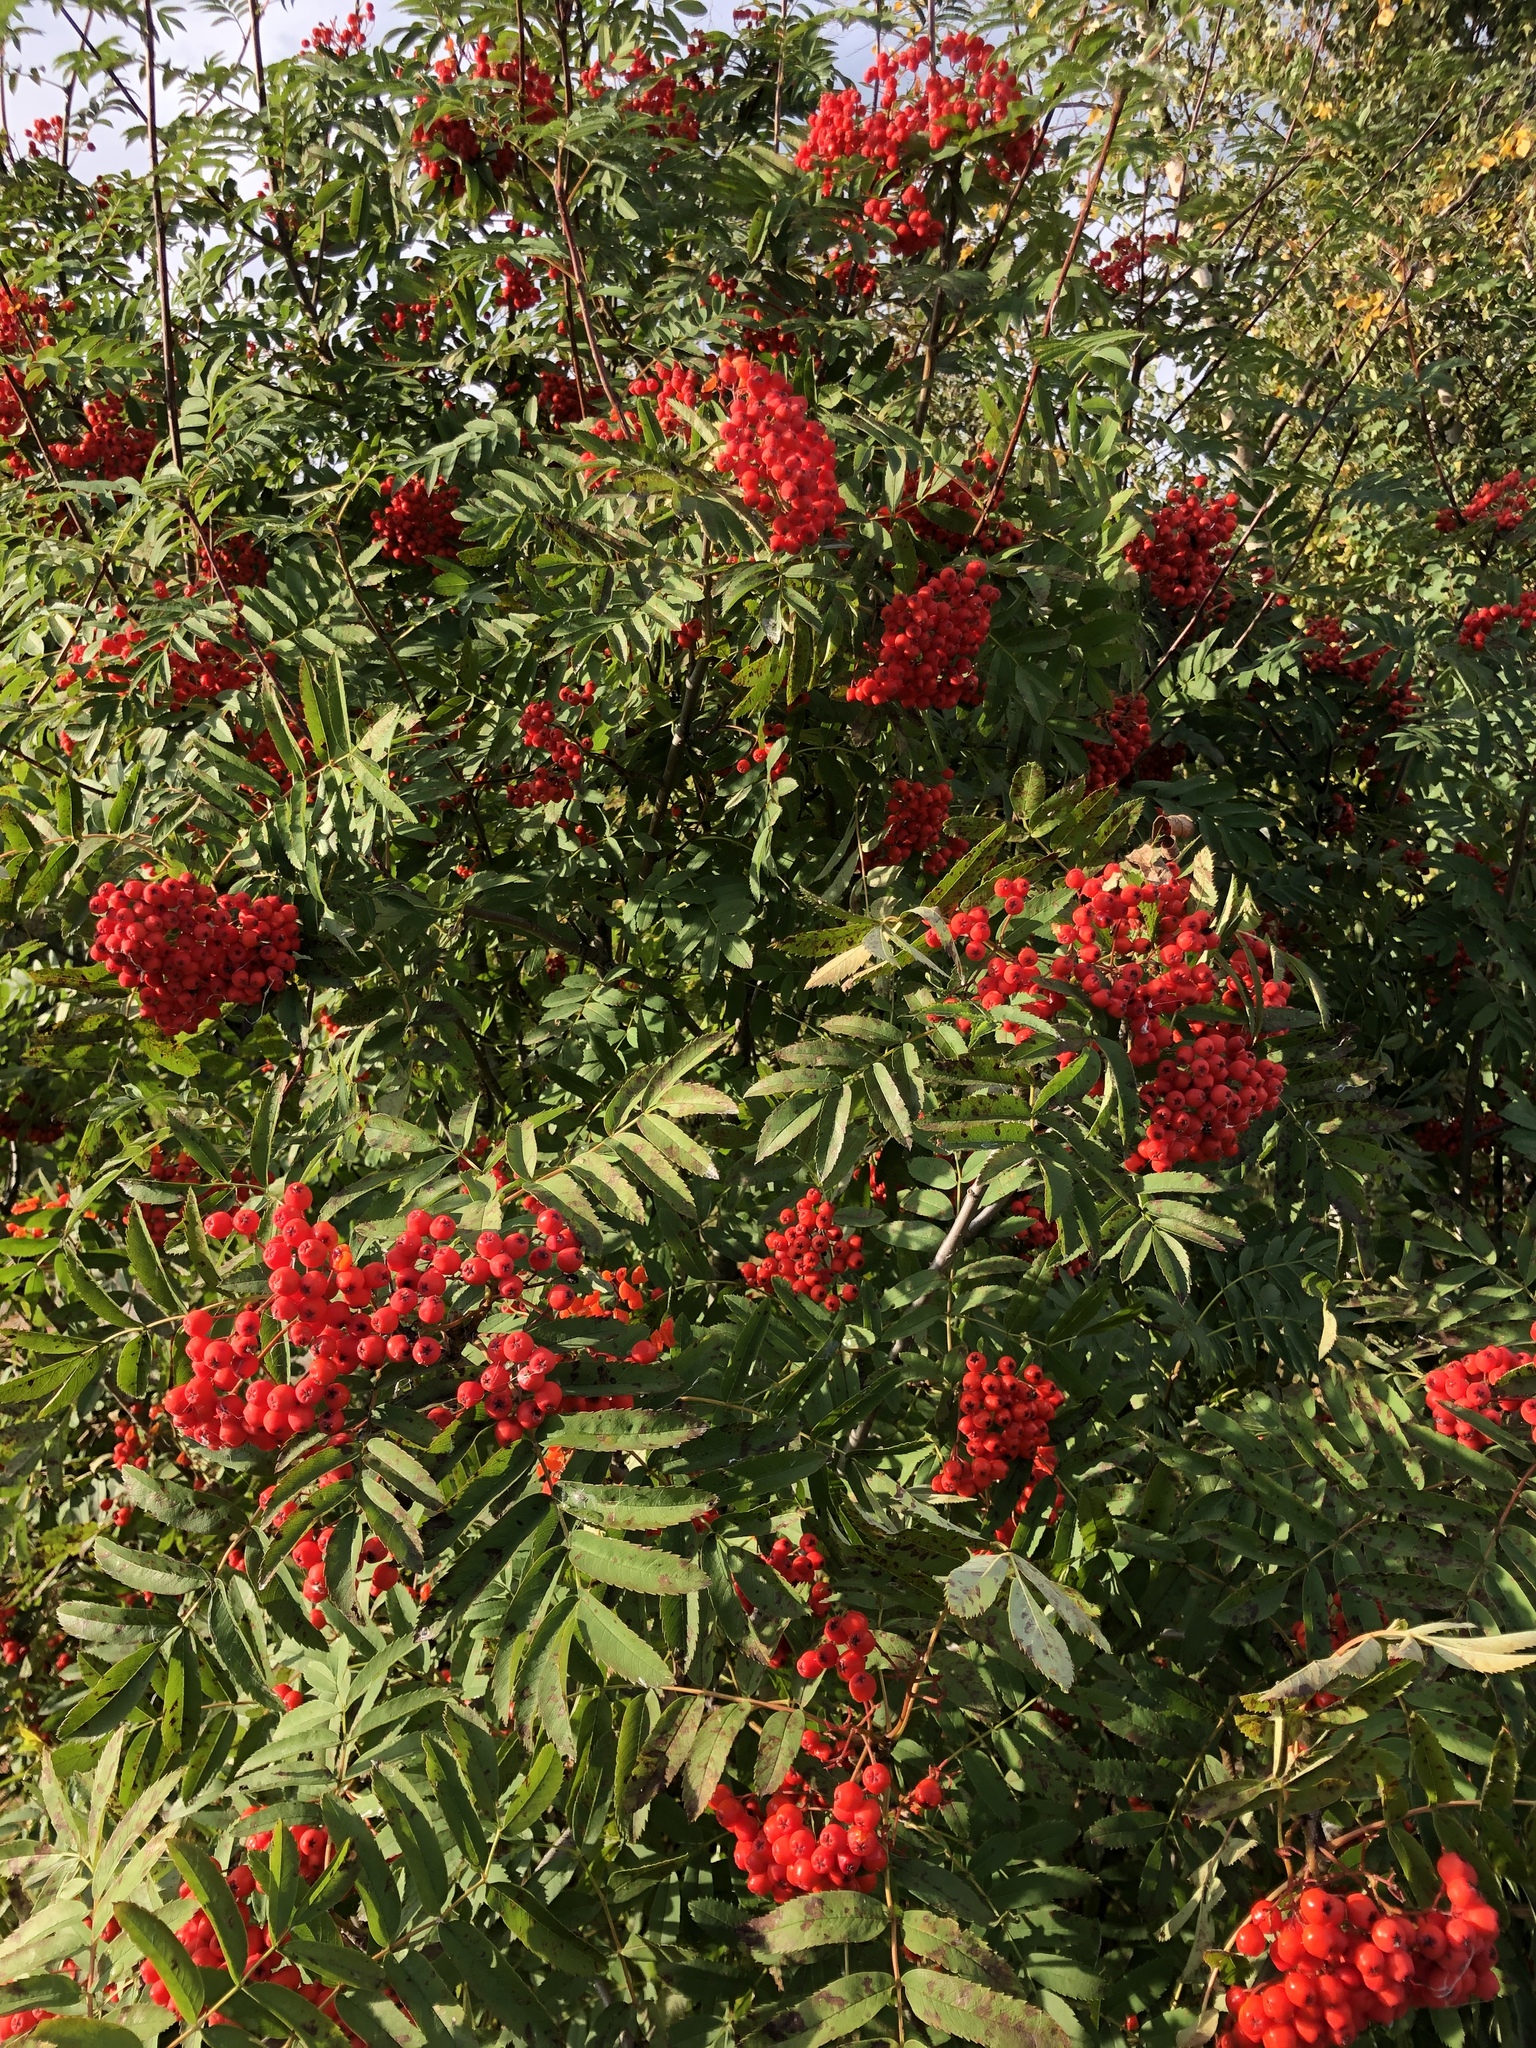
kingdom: Plantae
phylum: Tracheophyta
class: Magnoliopsida
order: Rosales
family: Rosaceae
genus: Sorbus
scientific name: Sorbus aucuparia
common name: Rowan
